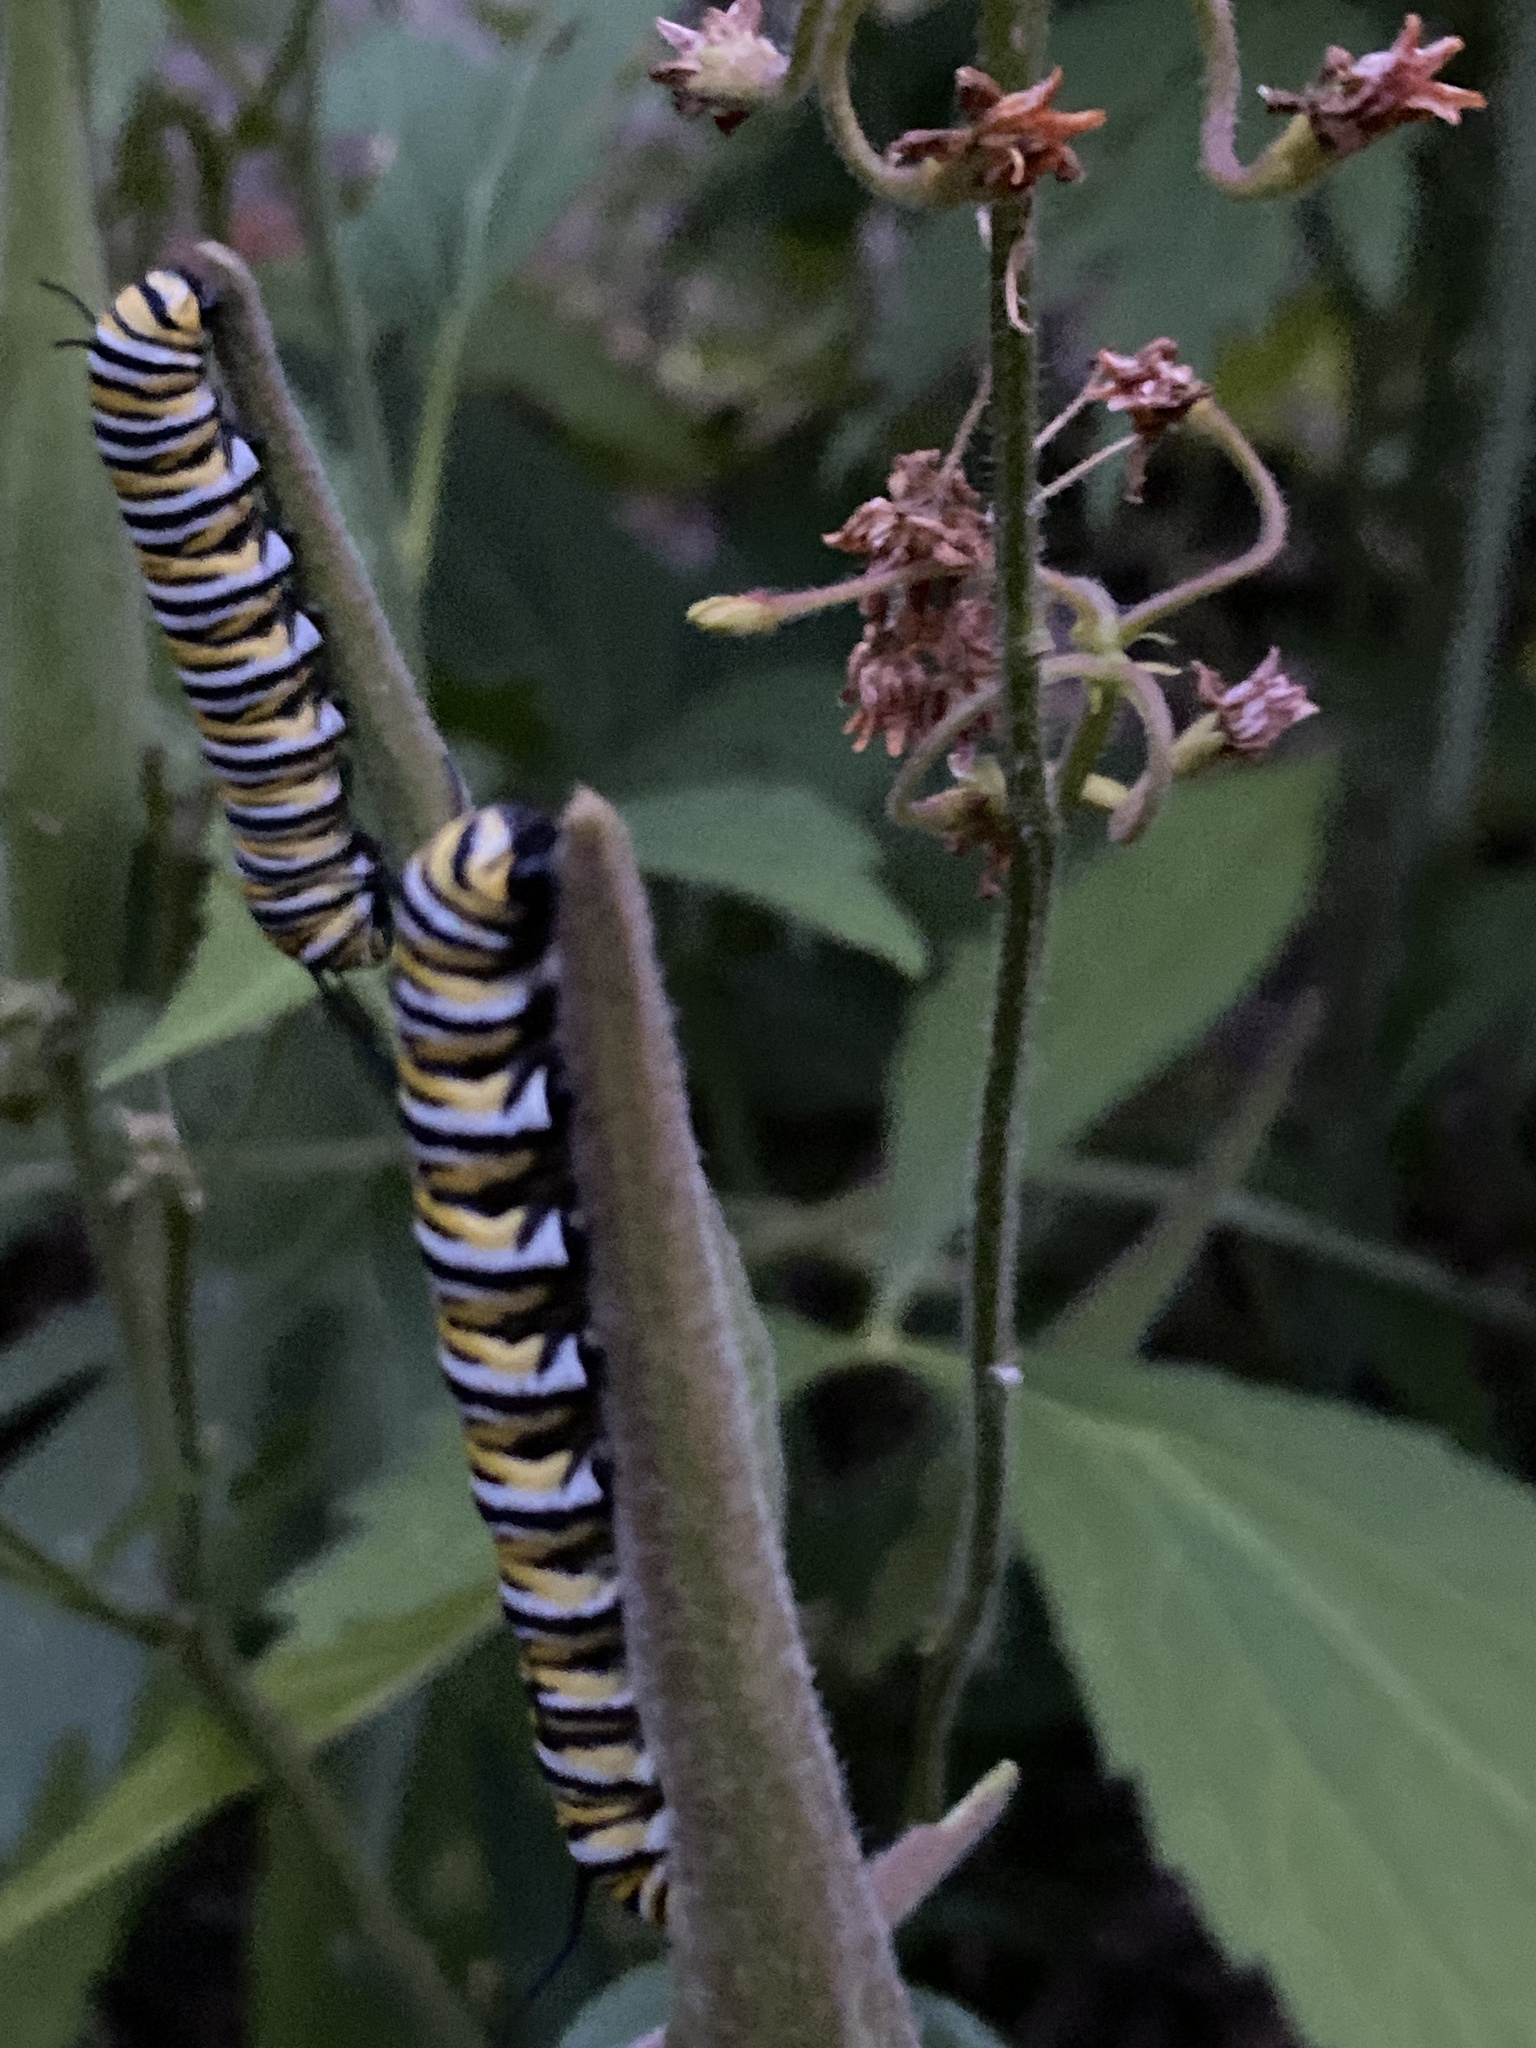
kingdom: Animalia
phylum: Arthropoda
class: Insecta
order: Lepidoptera
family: Nymphalidae
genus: Danaus
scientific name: Danaus plexippus
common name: Monarch
